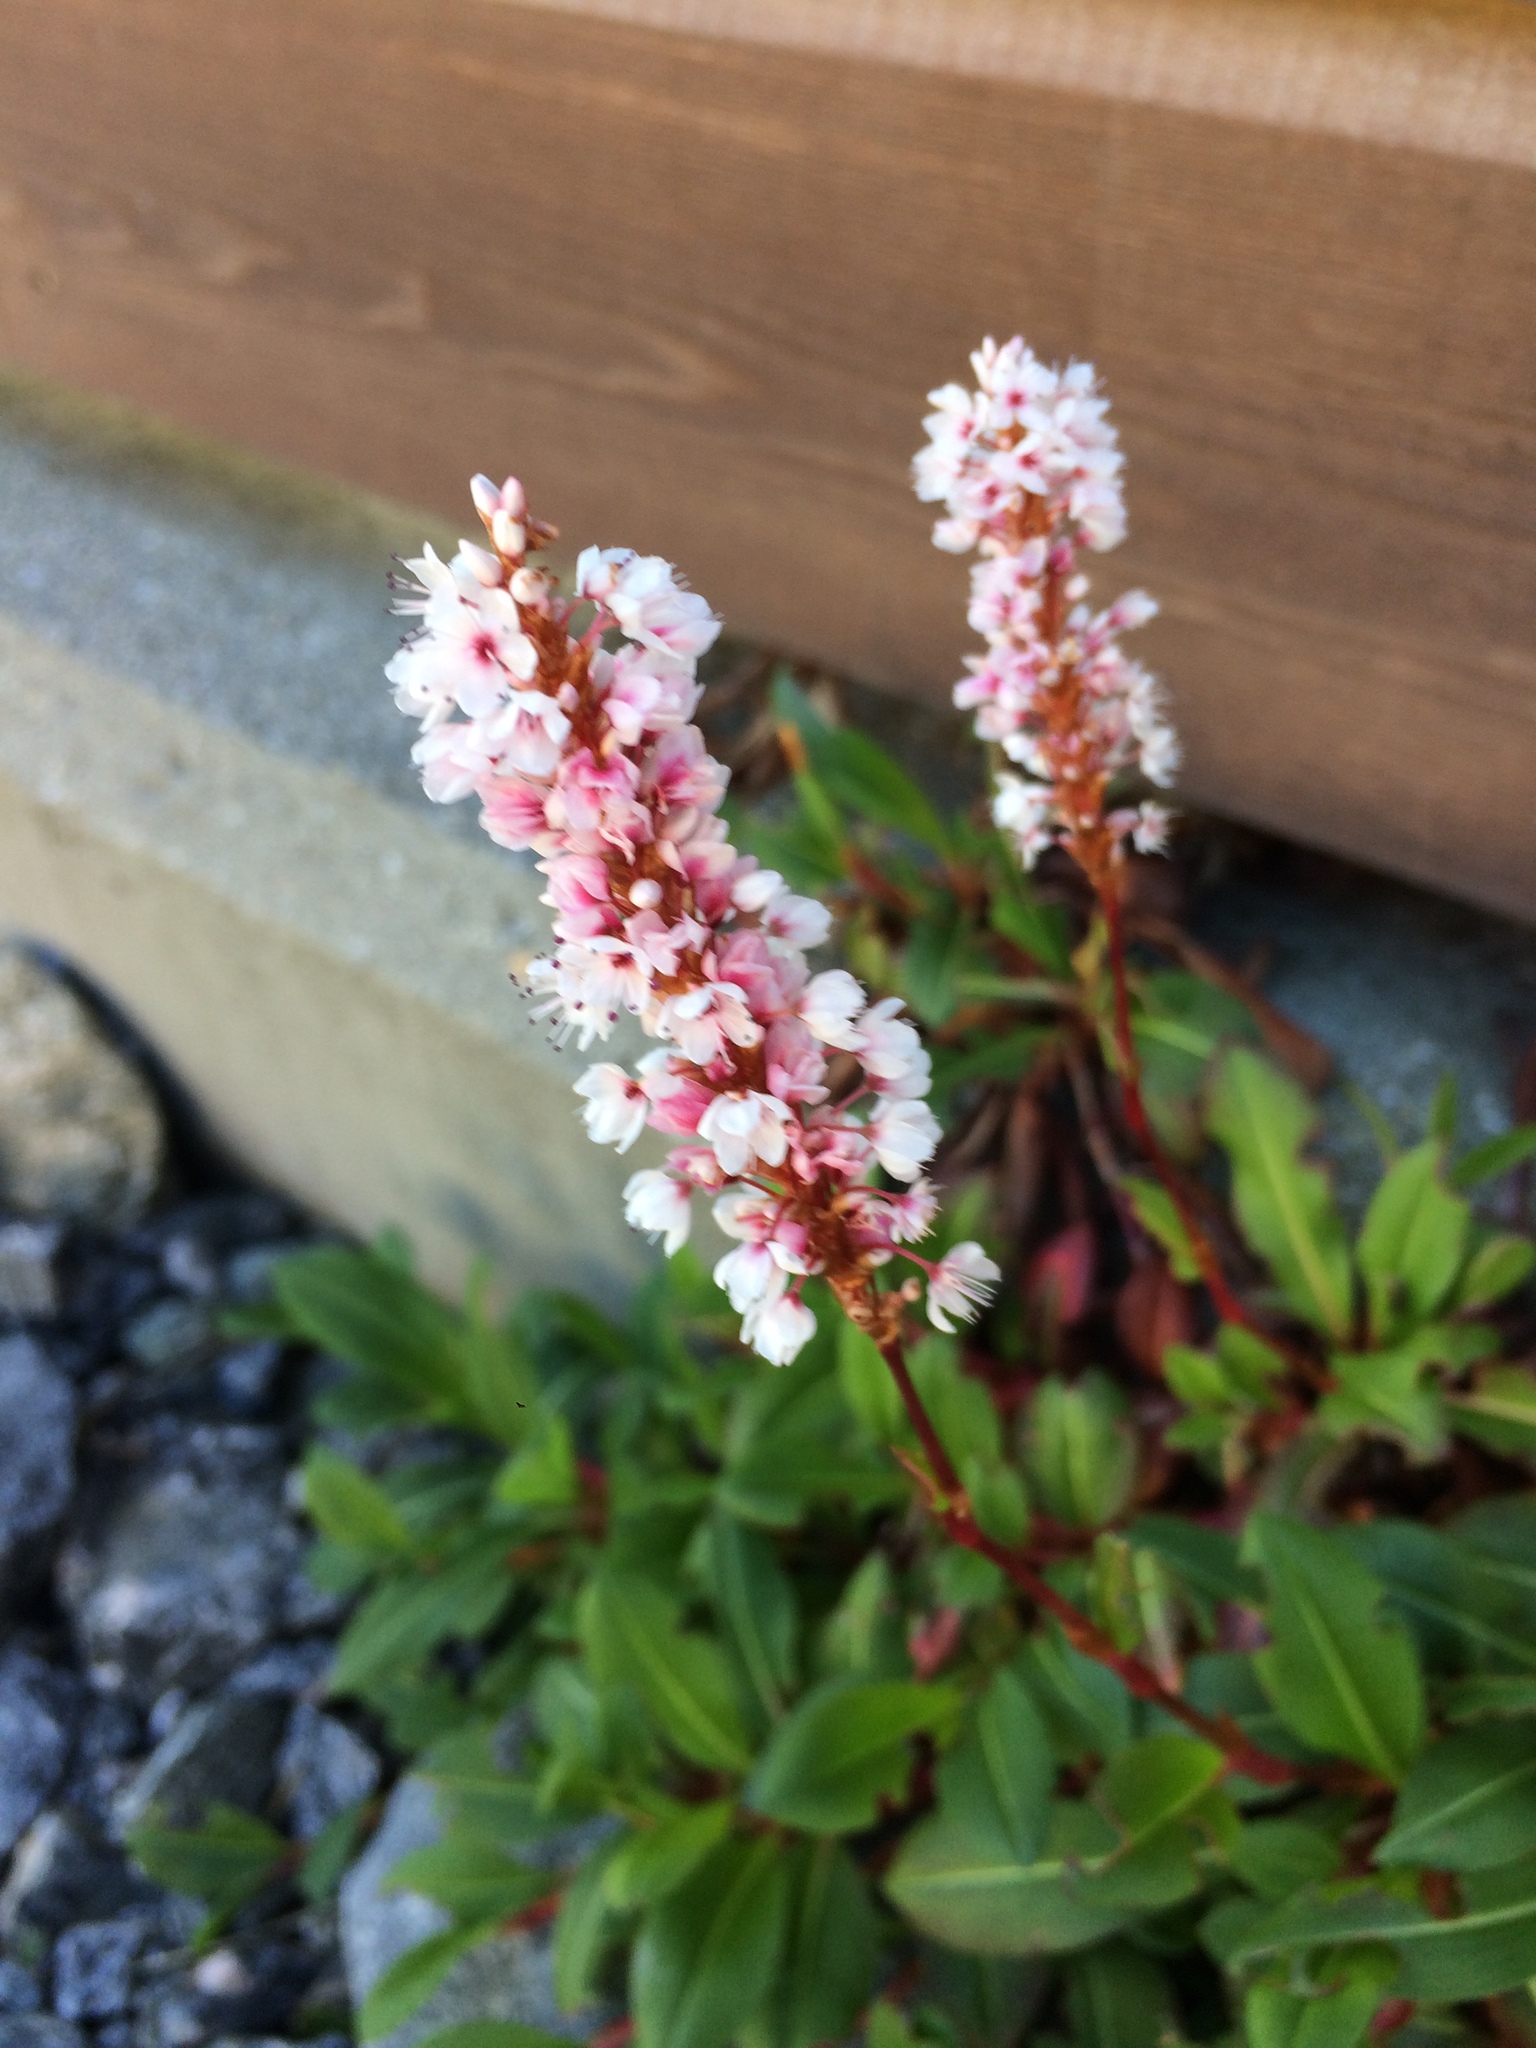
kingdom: Plantae
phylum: Tracheophyta
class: Magnoliopsida
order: Caryophyllales
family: Polygonaceae
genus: Bistorta
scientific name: Bistorta vivipara
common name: Alpine bistort
